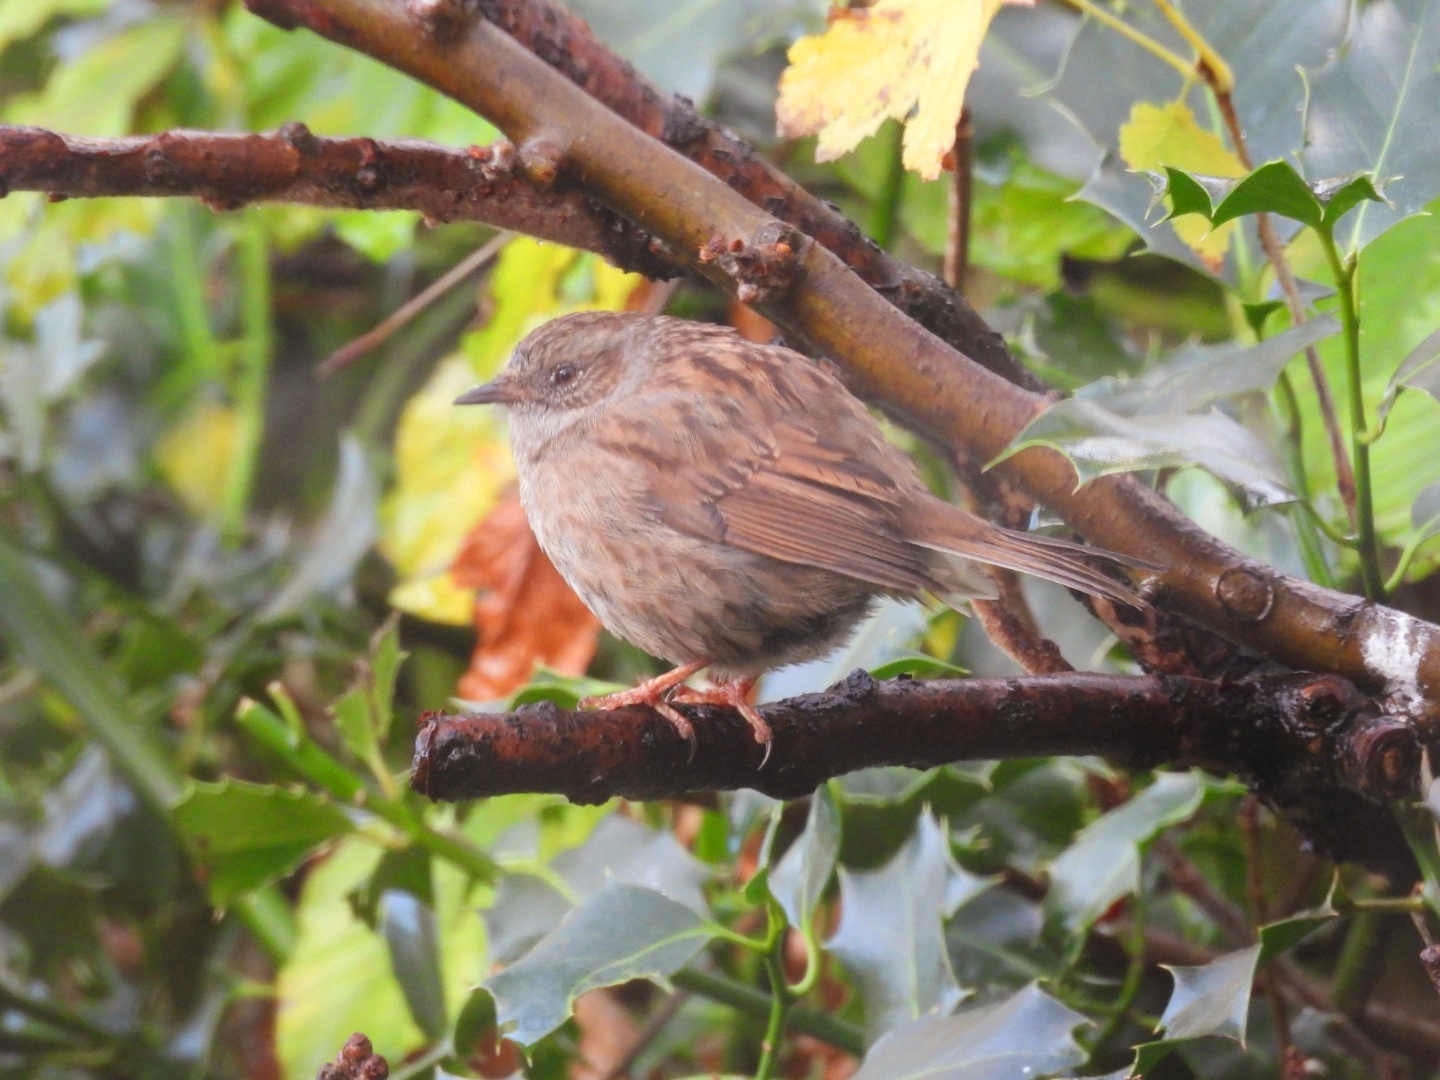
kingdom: Animalia
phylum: Chordata
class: Aves
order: Passeriformes
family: Prunellidae
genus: Prunella
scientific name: Prunella modularis
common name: Dunnock
